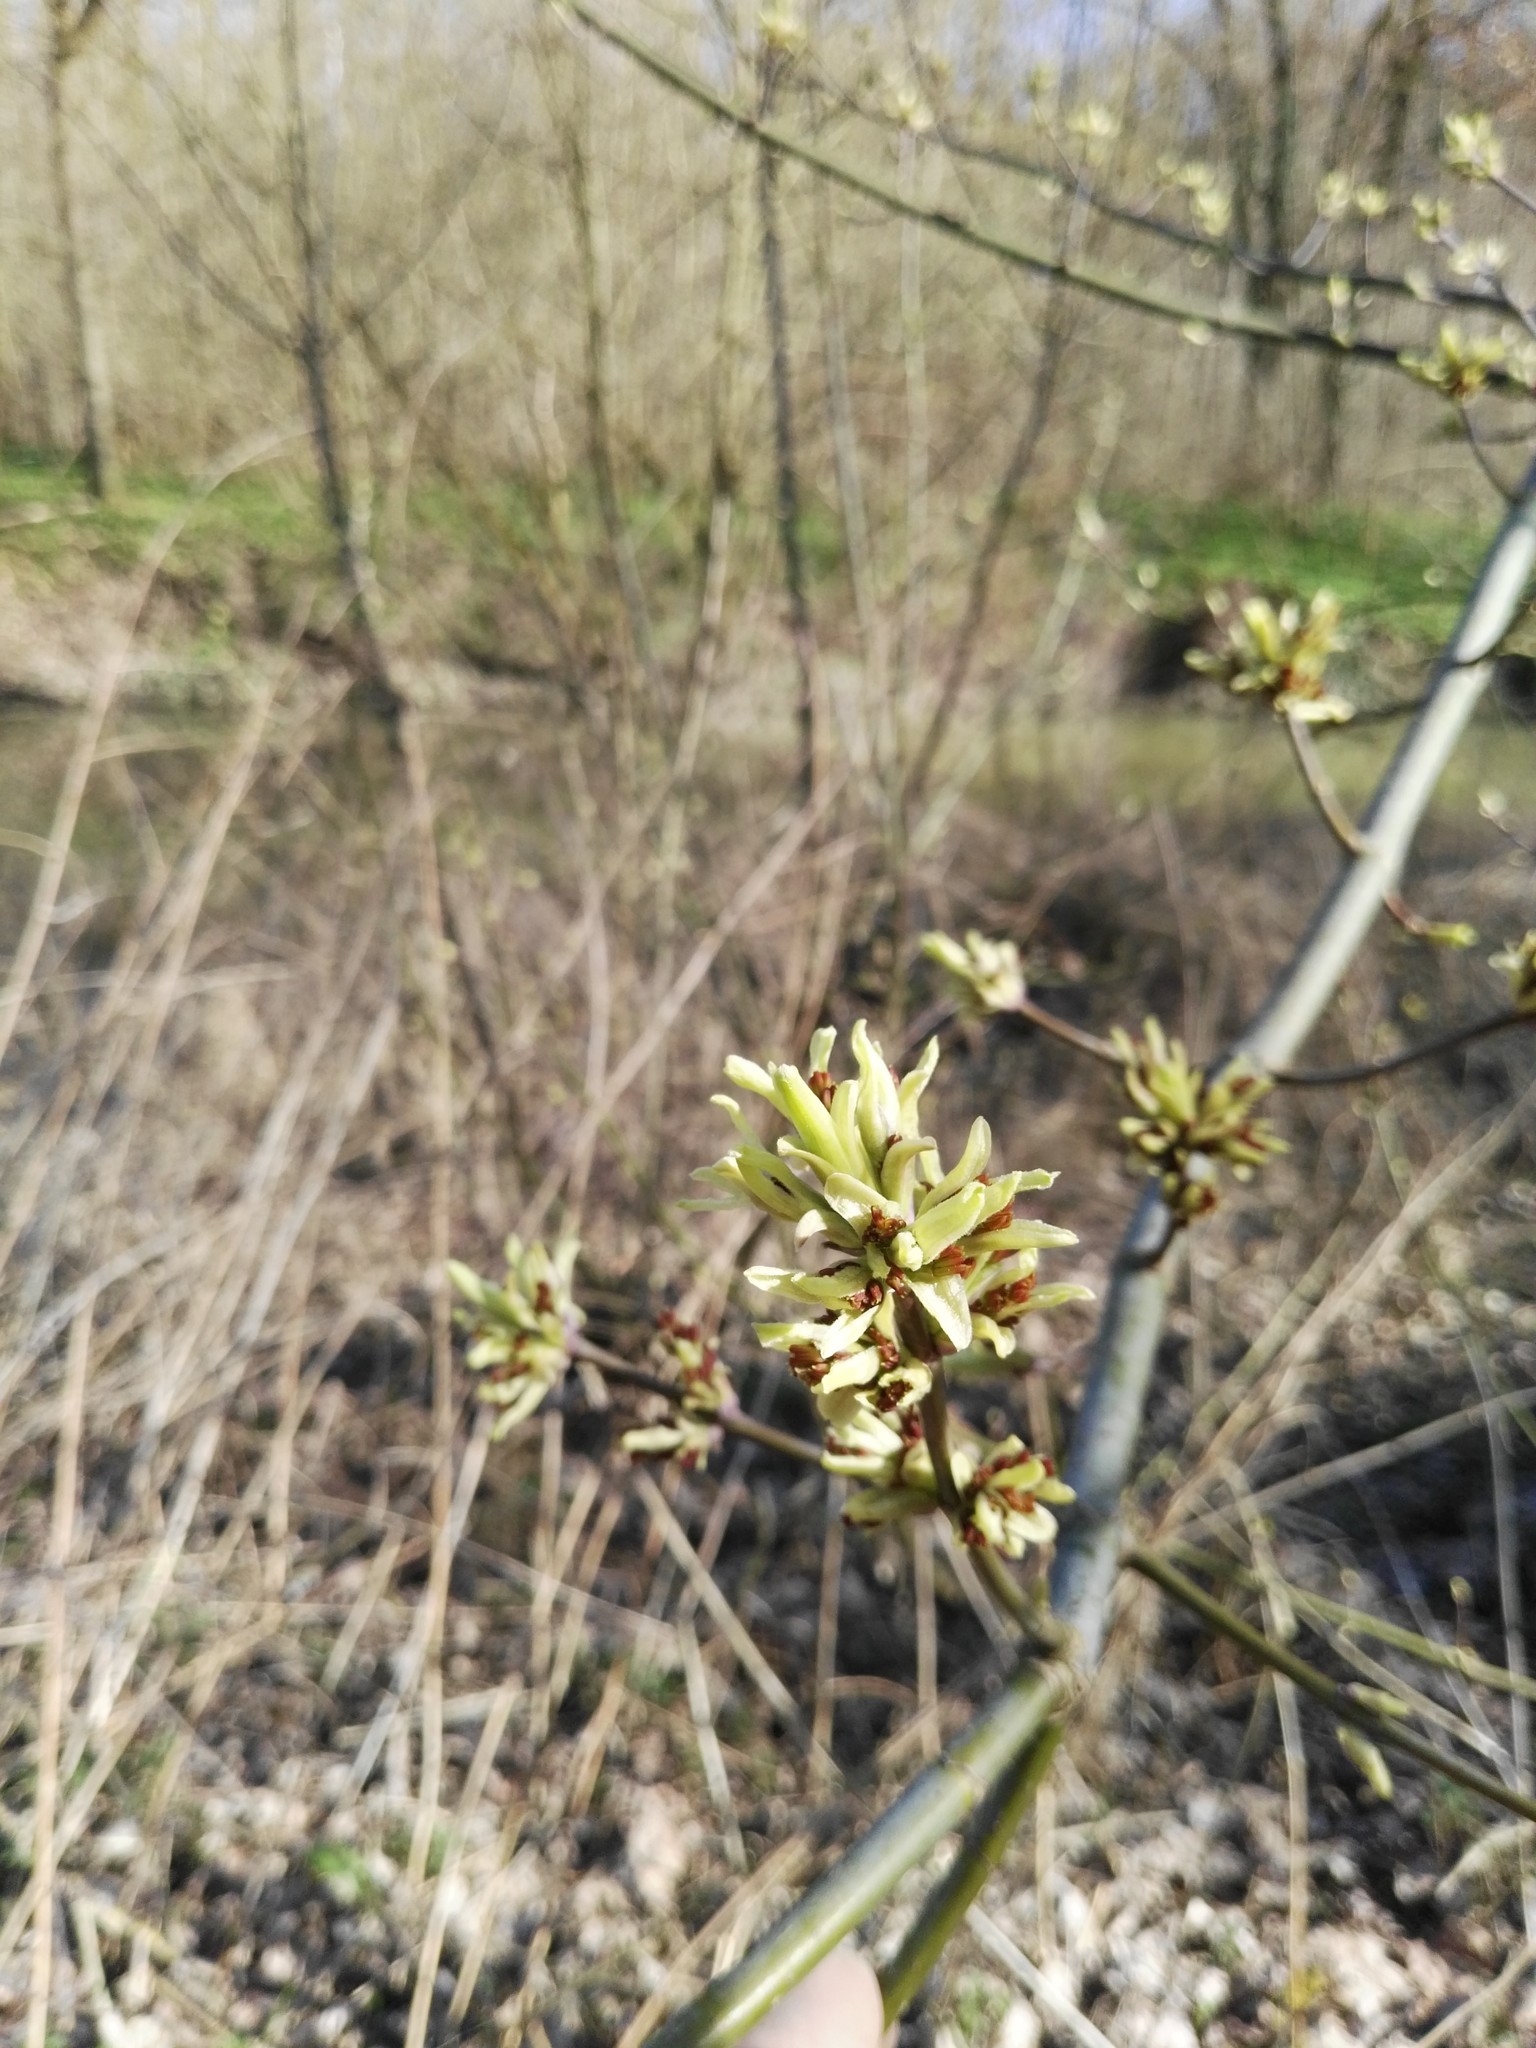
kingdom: Plantae
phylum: Tracheophyta
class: Magnoliopsida
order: Sapindales
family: Sapindaceae
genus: Acer
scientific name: Acer negundo
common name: Ashleaf maple
